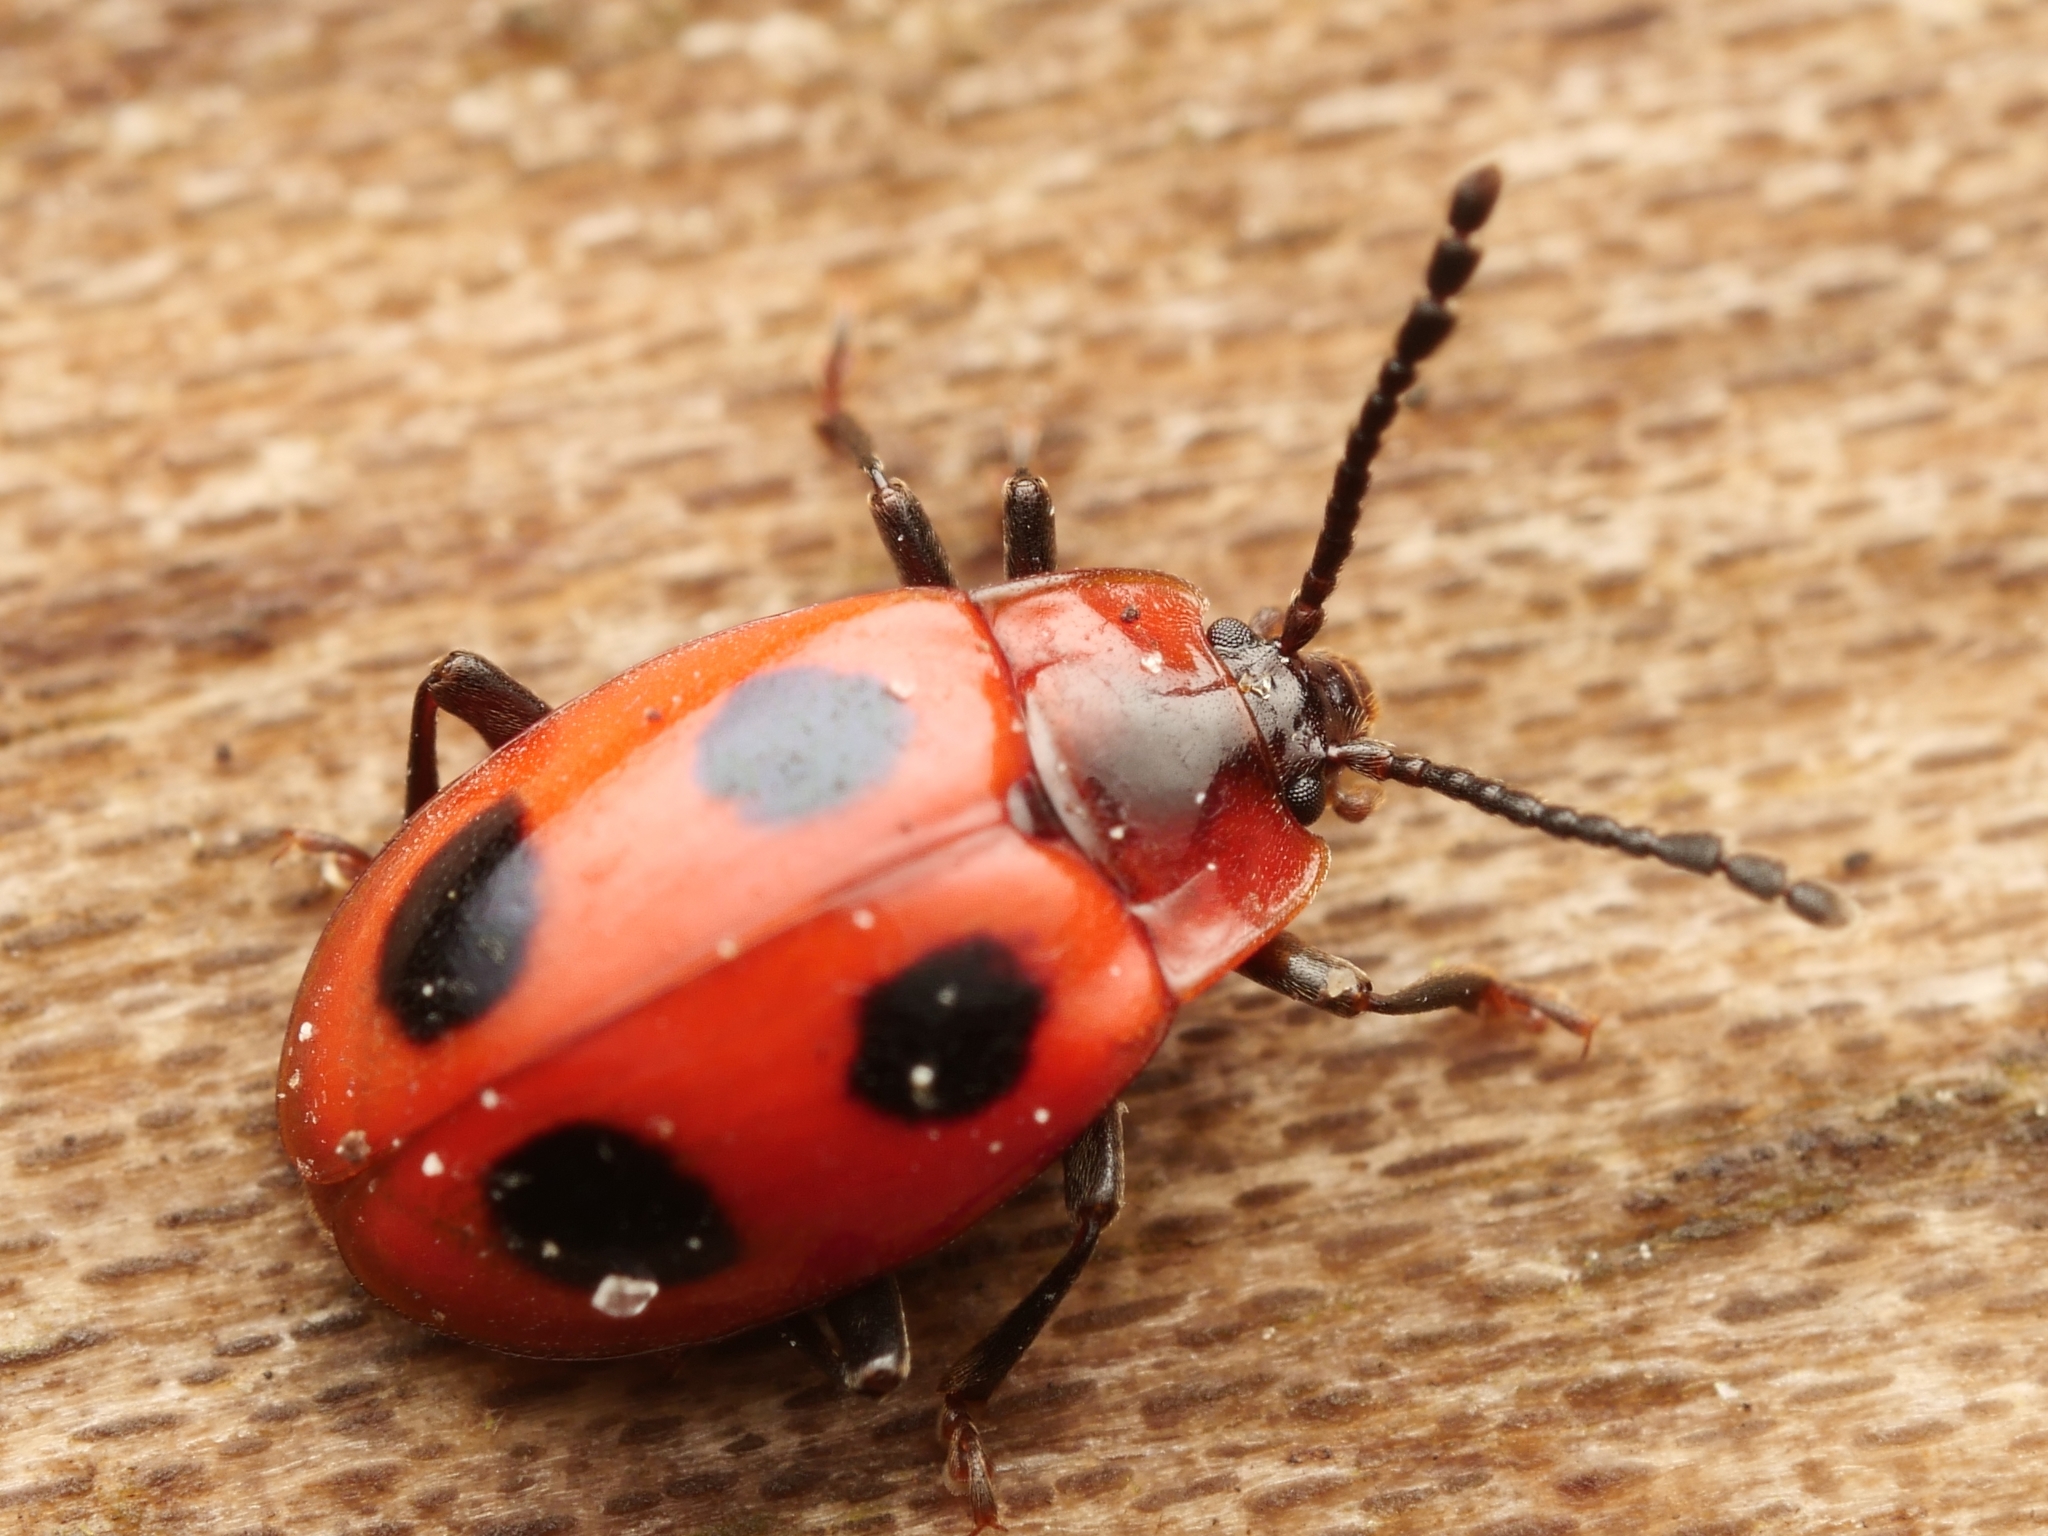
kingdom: Animalia
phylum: Arthropoda
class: Insecta
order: Coleoptera
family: Endomychidae
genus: Endomychus
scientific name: Endomychus coccineus
